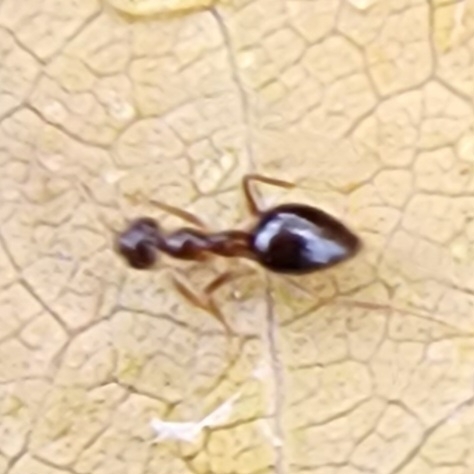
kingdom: Animalia
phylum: Arthropoda
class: Insecta
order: Hymenoptera
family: Formicidae
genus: Prenolepis
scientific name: Prenolepis imparis
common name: Small honey ant
